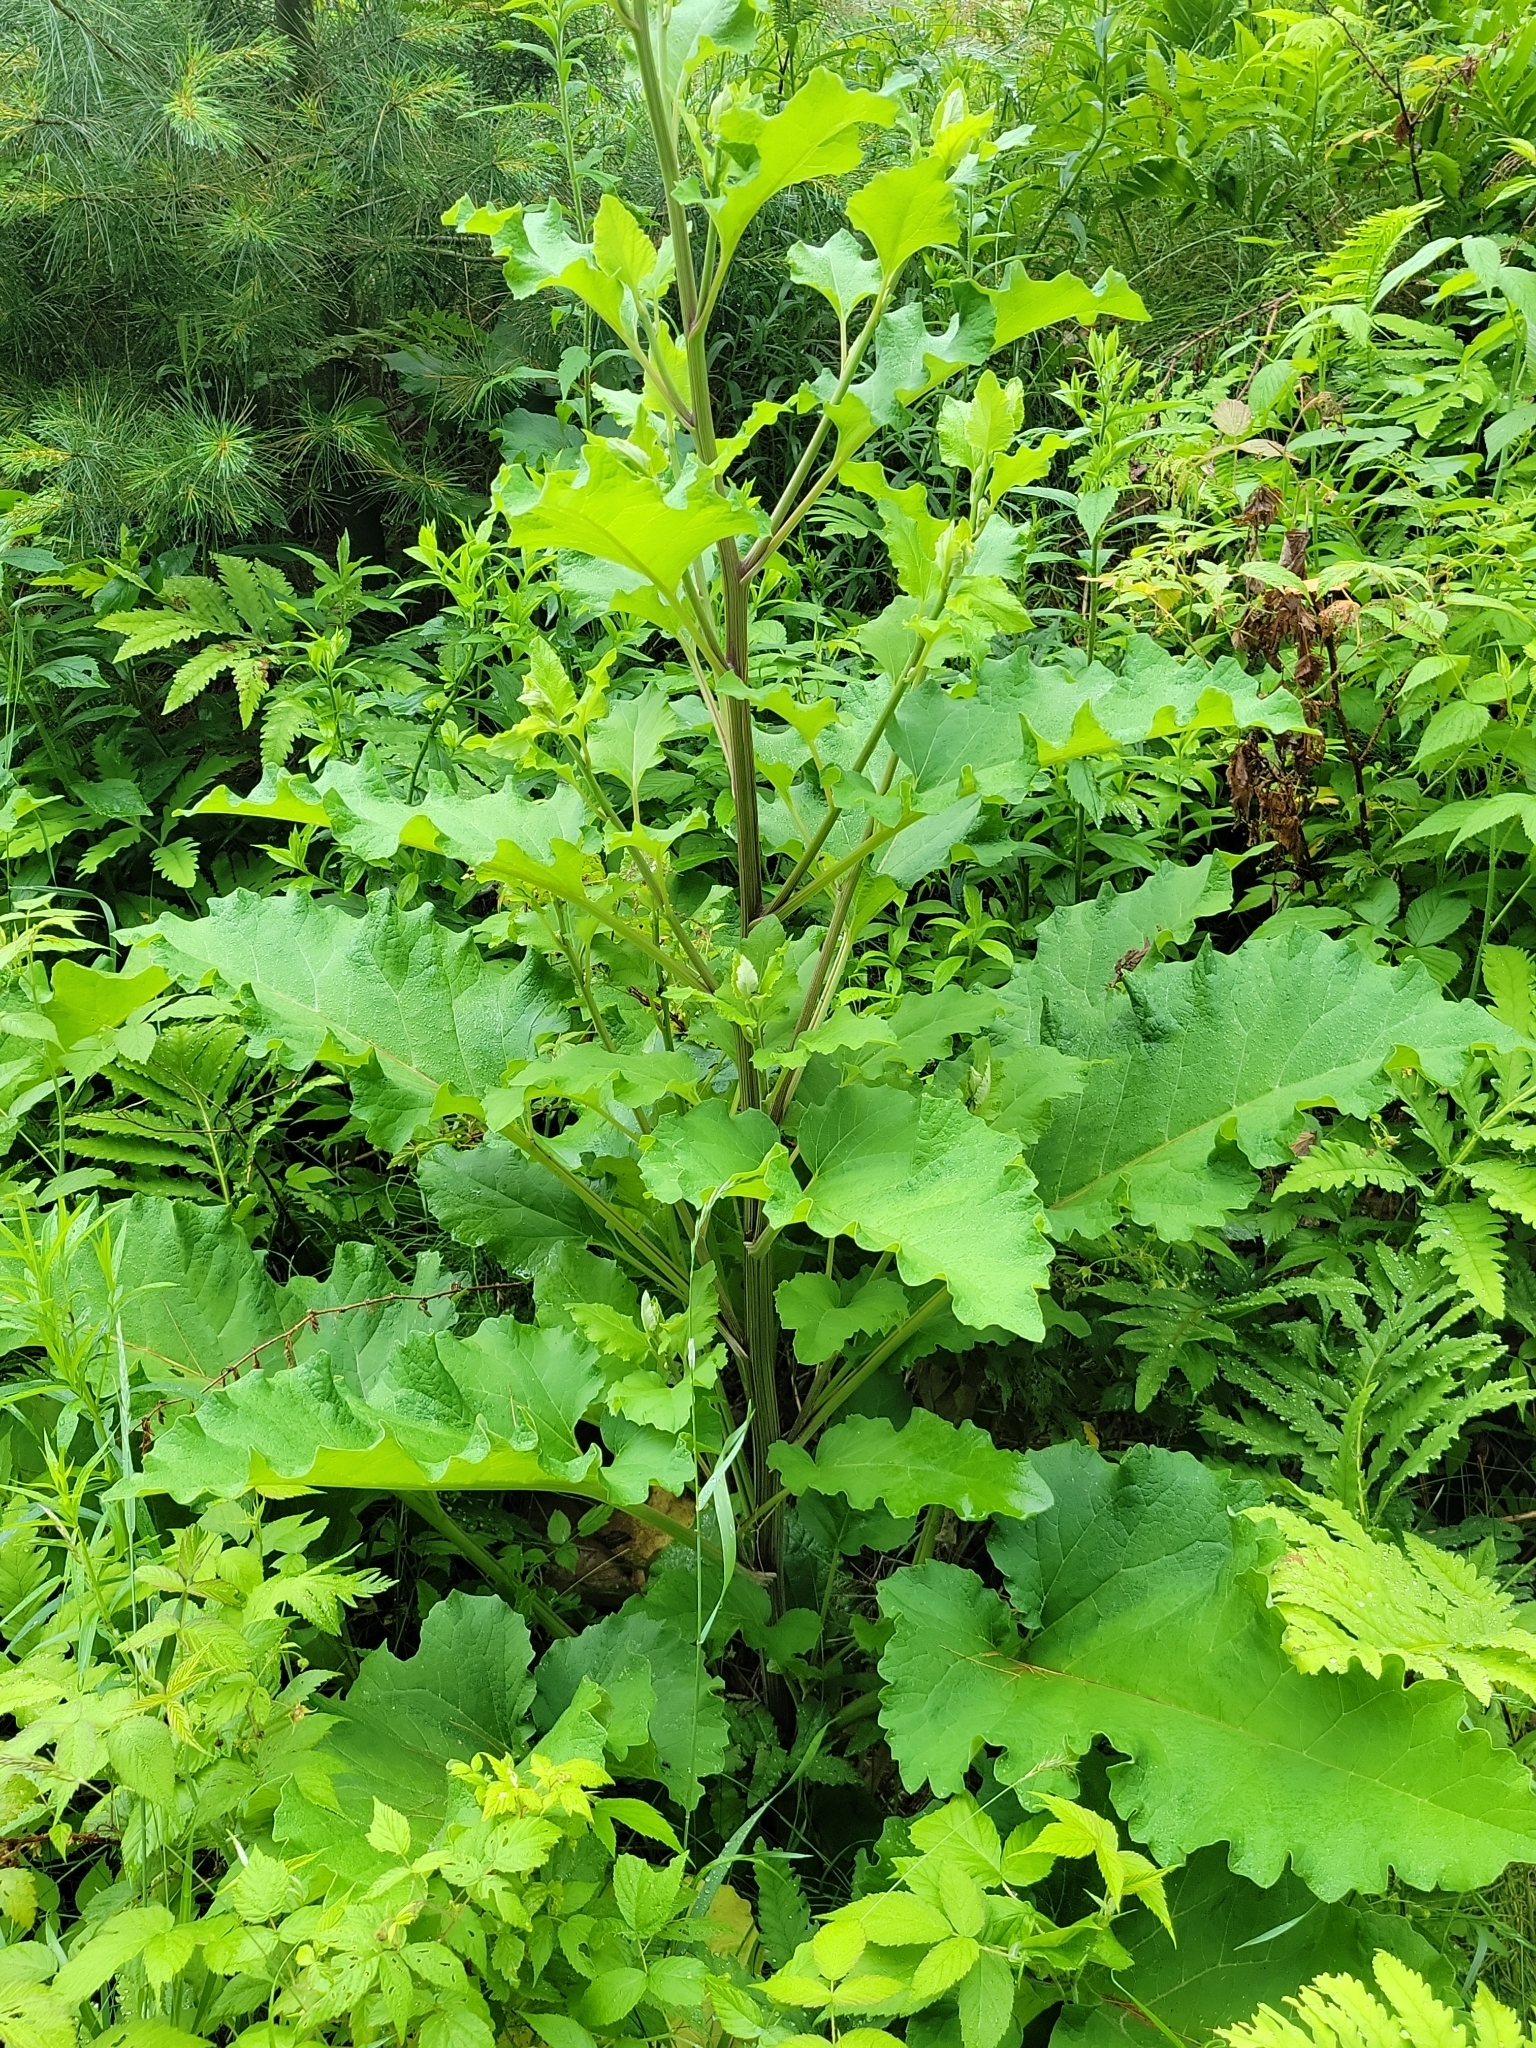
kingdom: Plantae
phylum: Tracheophyta
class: Magnoliopsida
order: Asterales
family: Asteraceae
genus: Arctium
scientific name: Arctium
